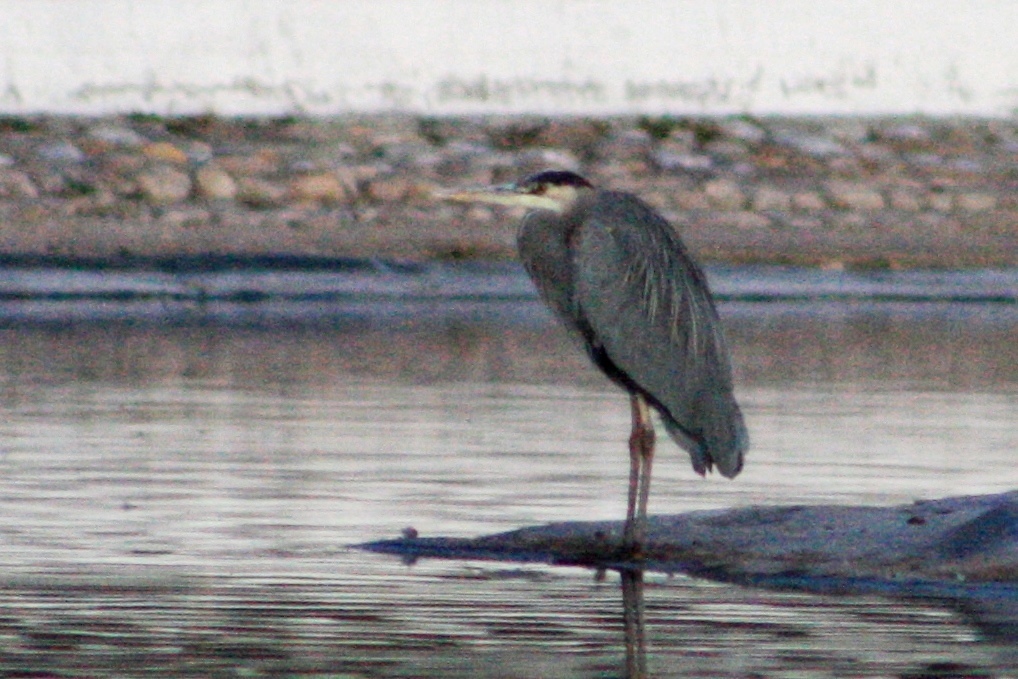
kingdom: Animalia
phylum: Chordata
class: Aves
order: Pelecaniformes
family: Ardeidae
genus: Ardea
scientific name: Ardea herodias
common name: Great blue heron
